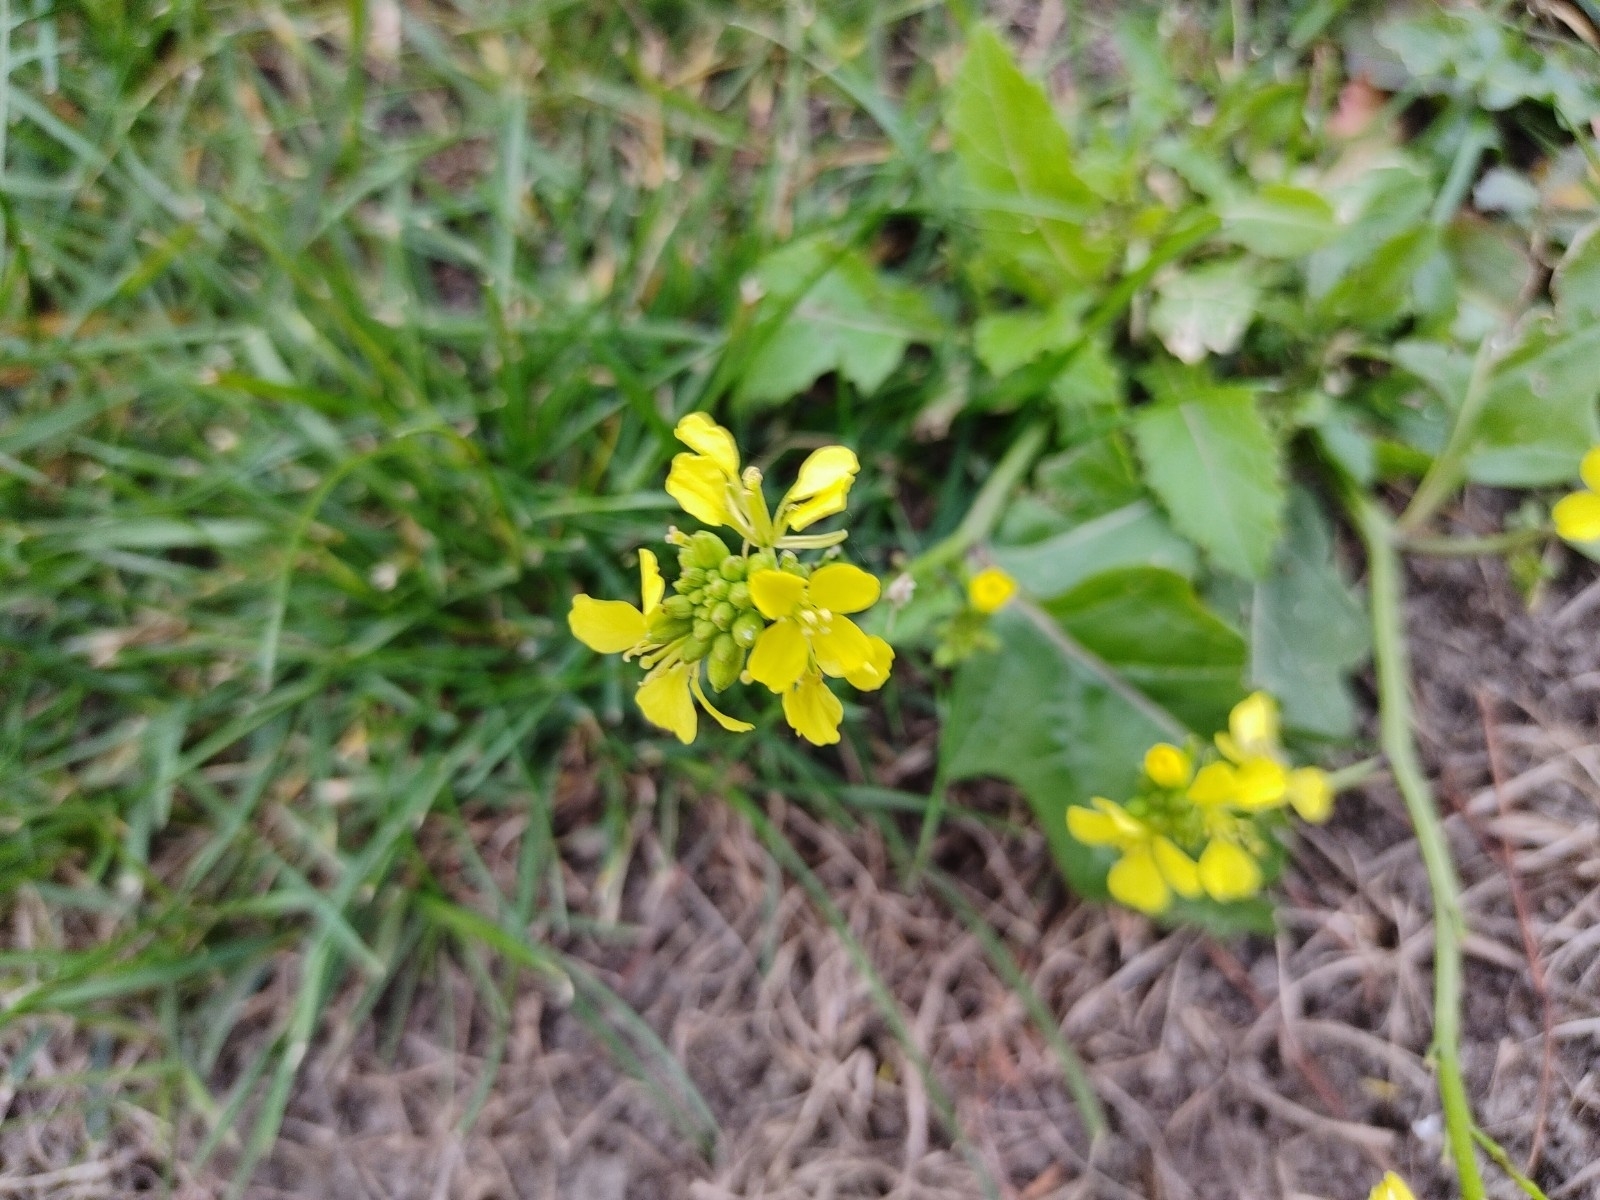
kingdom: Plantae
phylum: Tracheophyta
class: Magnoliopsida
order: Brassicales
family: Brassicaceae
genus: Sinapis
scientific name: Sinapis arvensis
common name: Charlock
